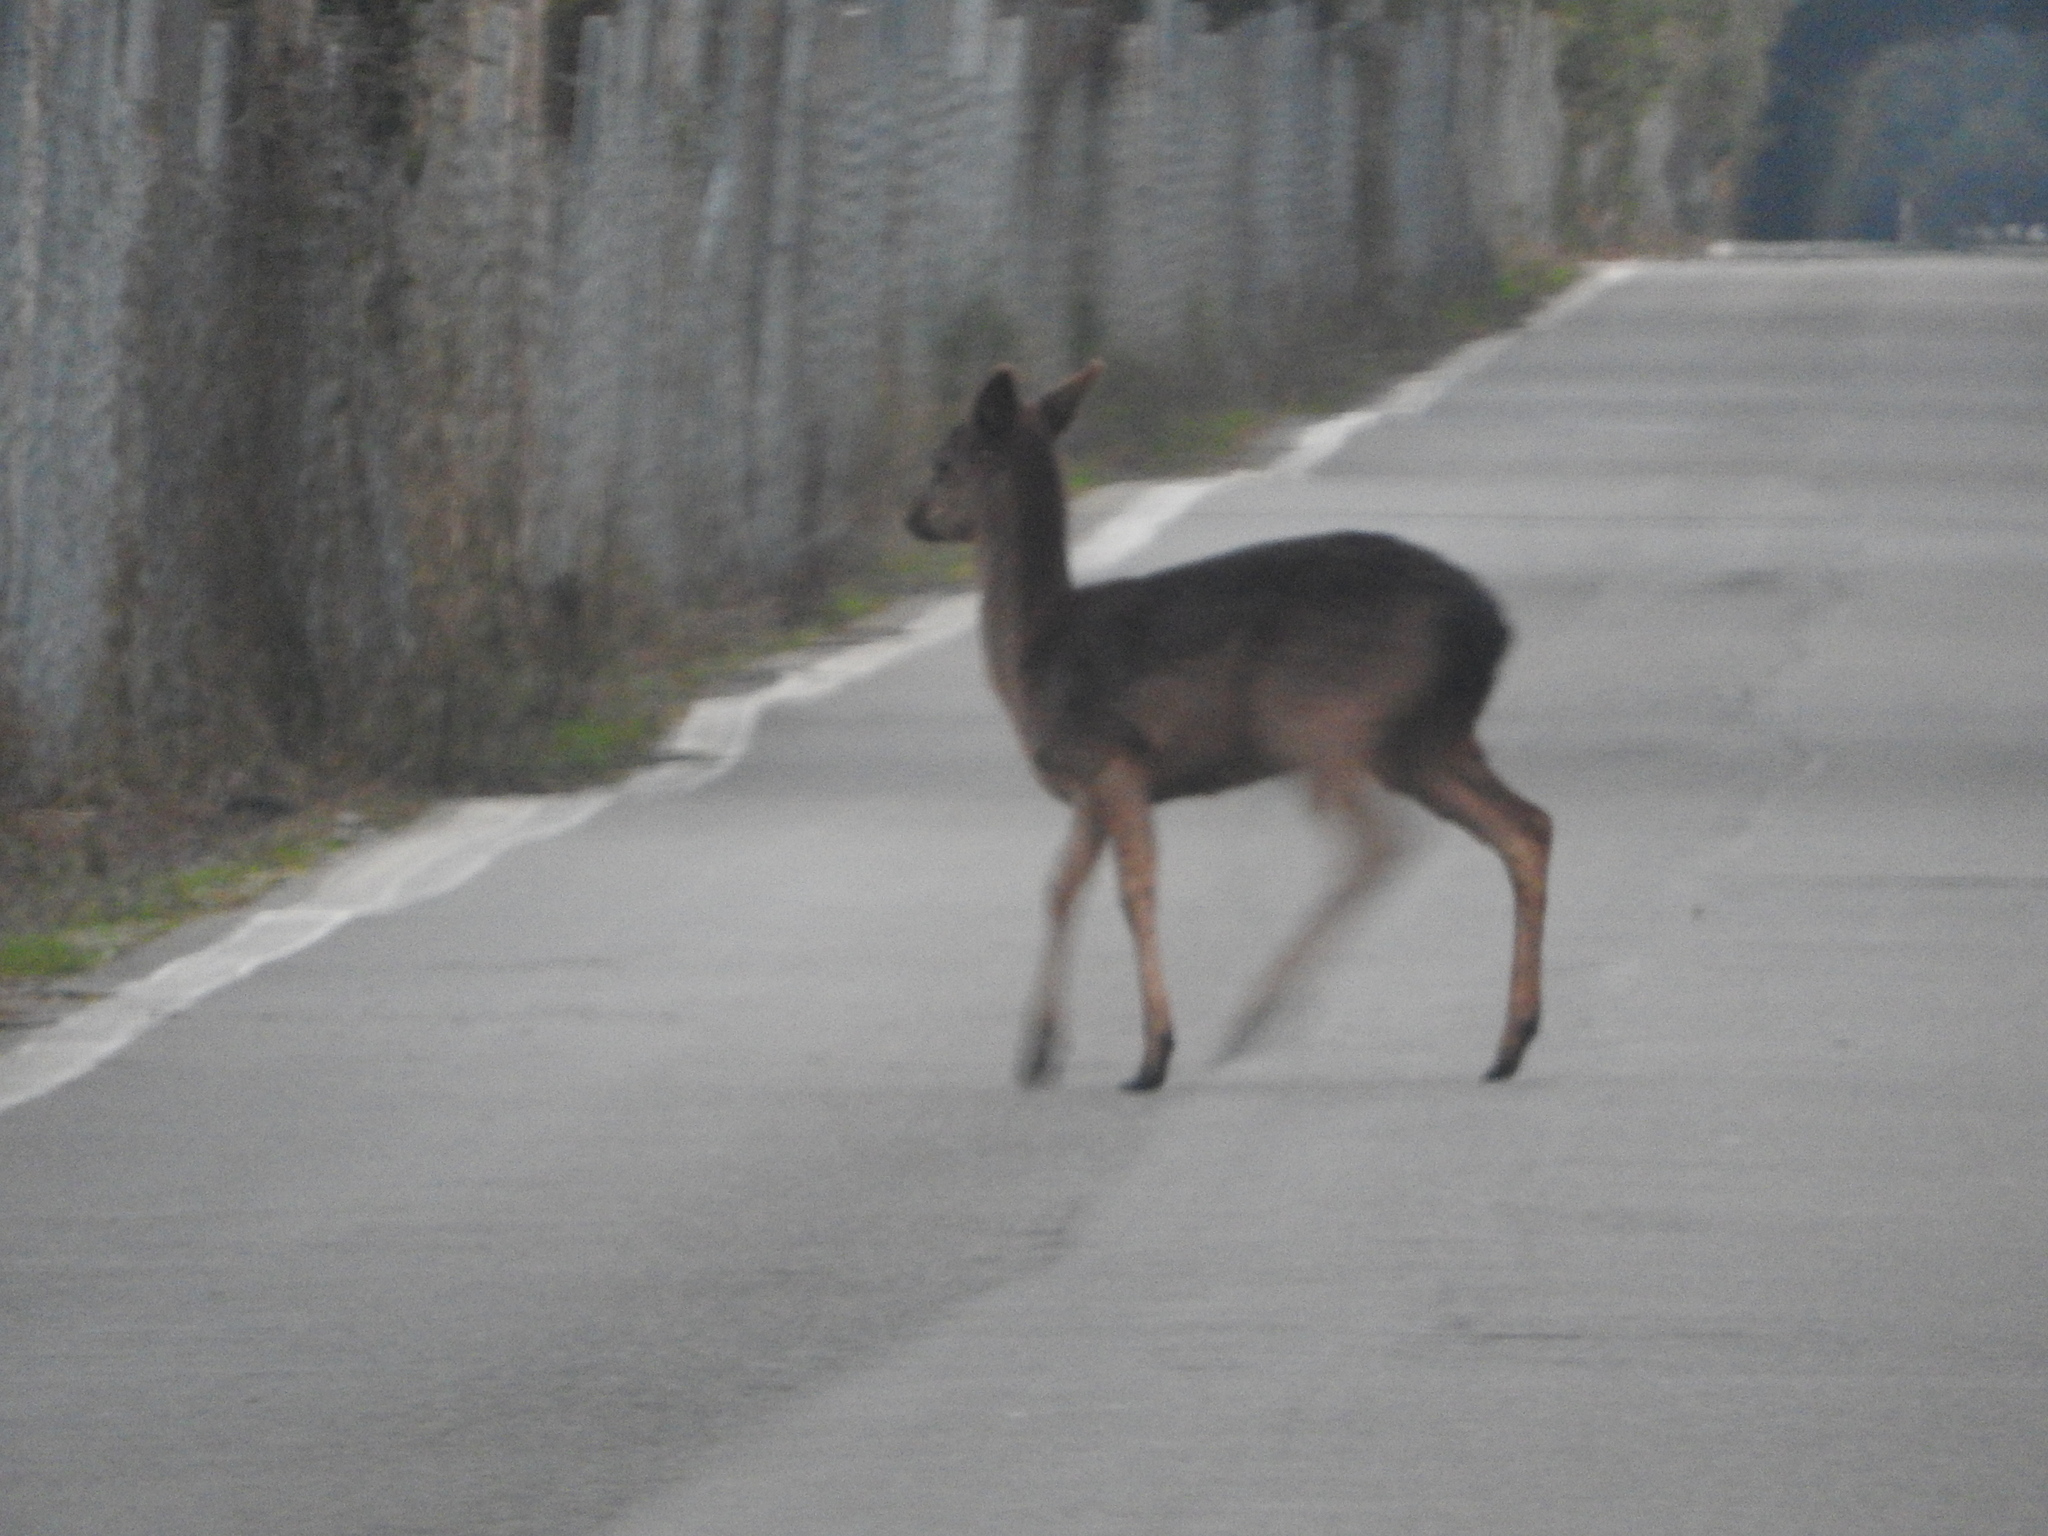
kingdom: Animalia
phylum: Chordata
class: Mammalia
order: Artiodactyla
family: Cervidae
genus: Dama
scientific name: Dama dama
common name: Fallow deer
